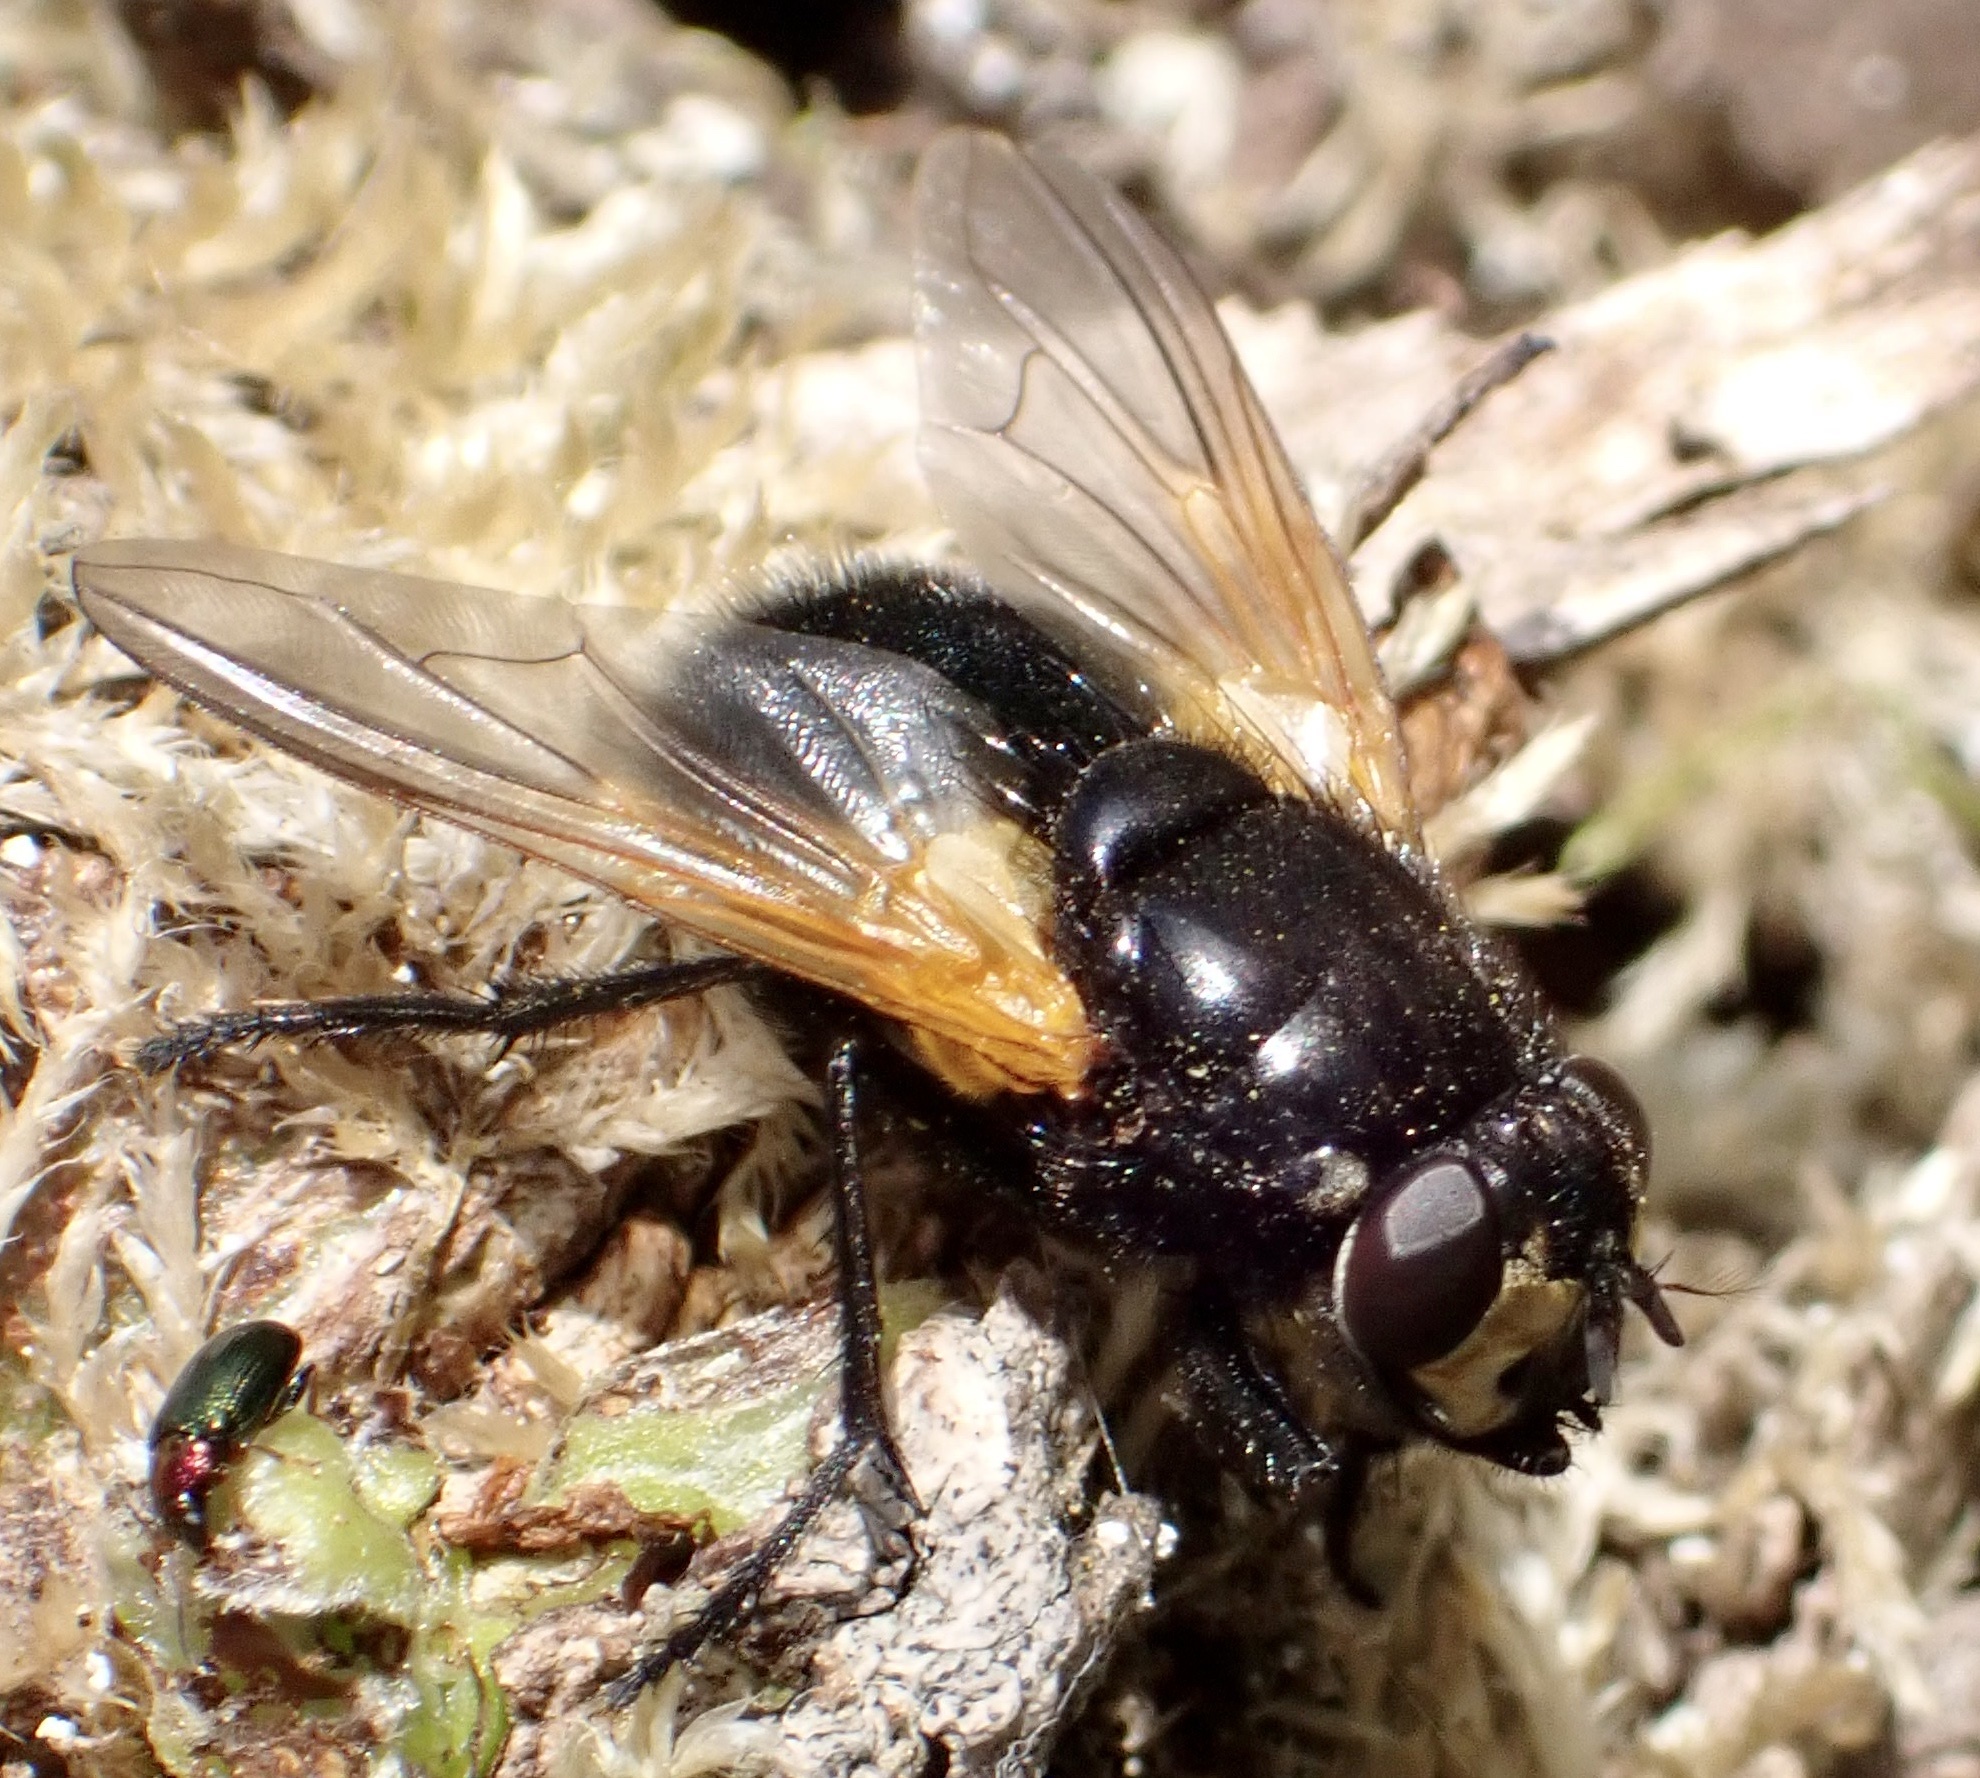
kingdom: Animalia
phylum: Arthropoda
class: Insecta
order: Diptera
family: Muscidae
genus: Mesembrina
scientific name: Mesembrina meridiana
